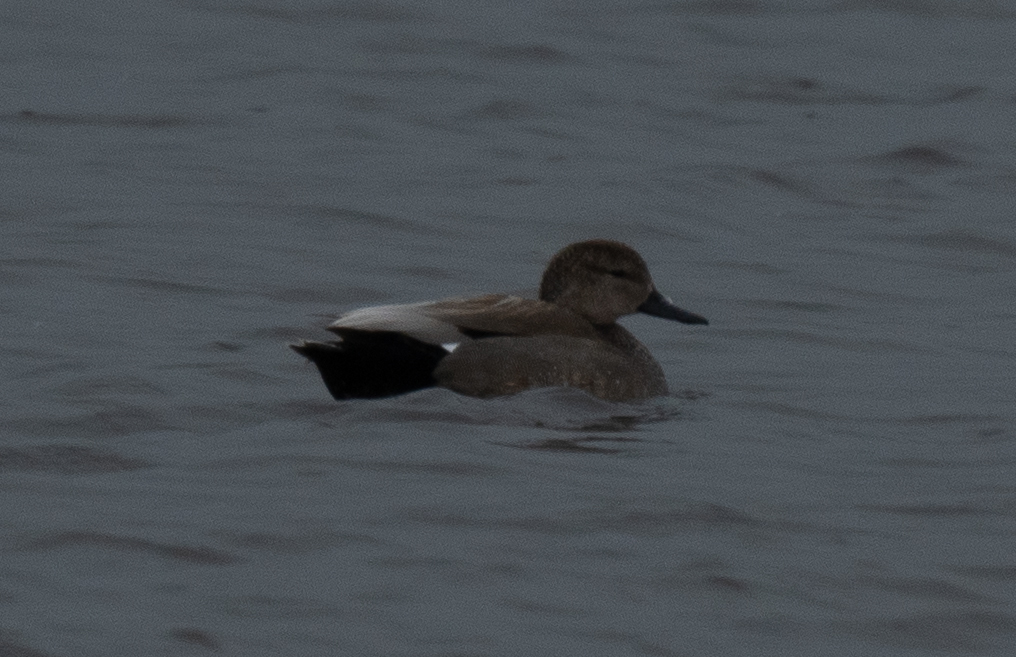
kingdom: Animalia
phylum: Chordata
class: Aves
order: Anseriformes
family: Anatidae
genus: Mareca
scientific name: Mareca strepera
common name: Gadwall
